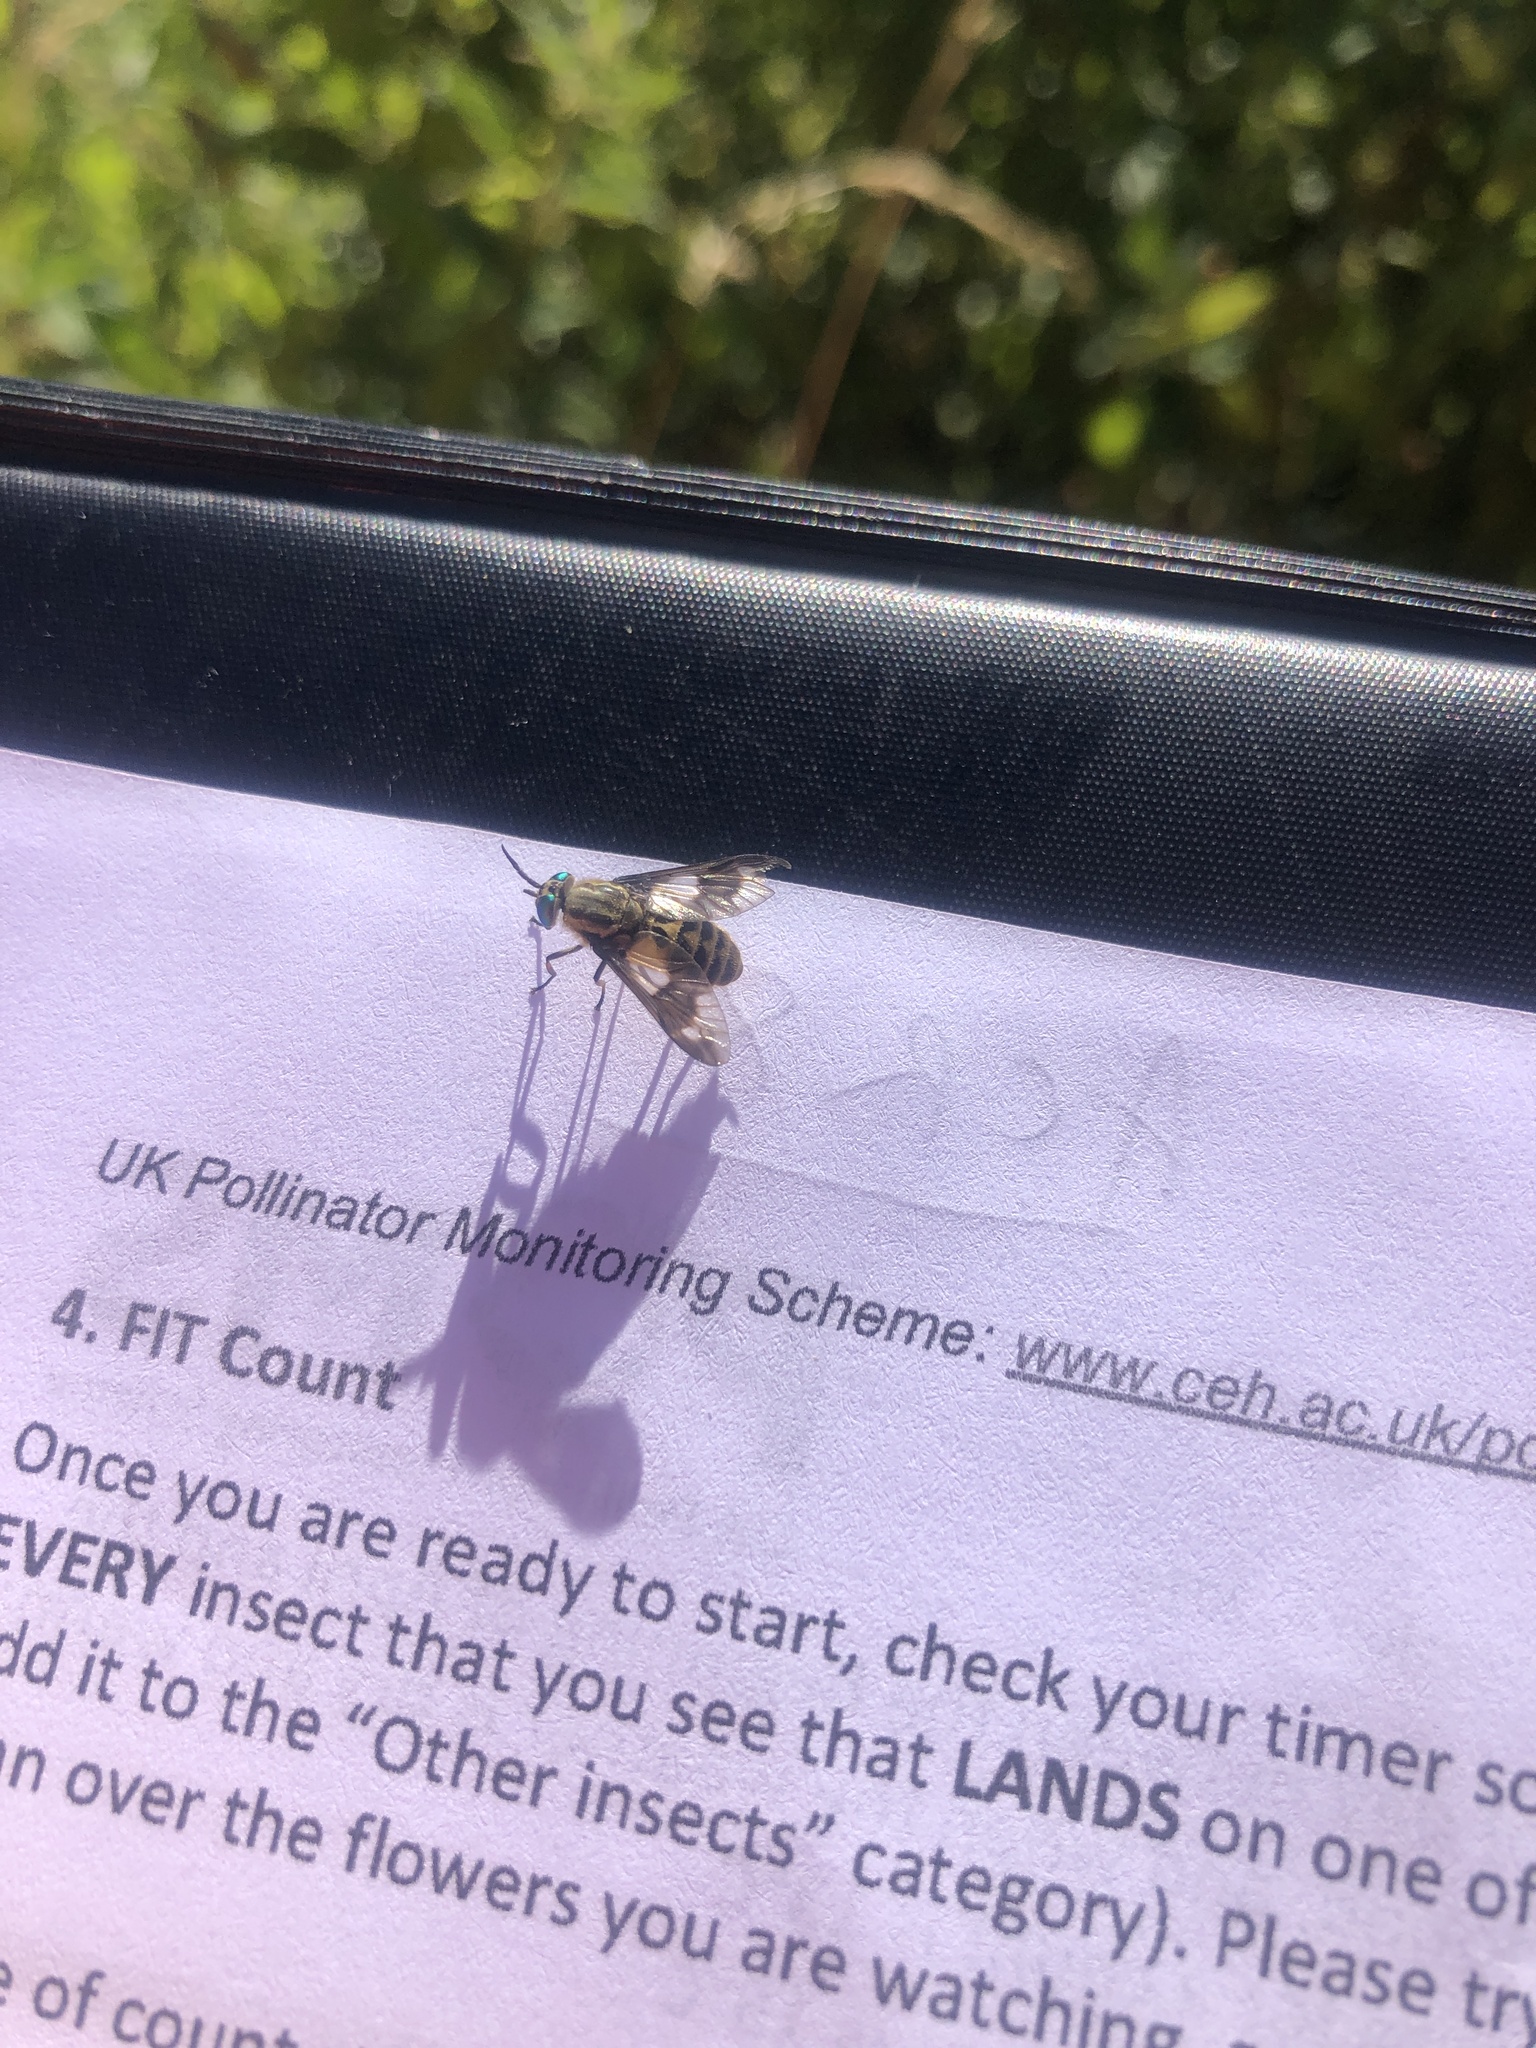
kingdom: Animalia
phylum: Arthropoda
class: Insecta
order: Diptera
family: Tabanidae
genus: Chrysops
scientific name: Chrysops relictus
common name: Twin-lobed deerfly
